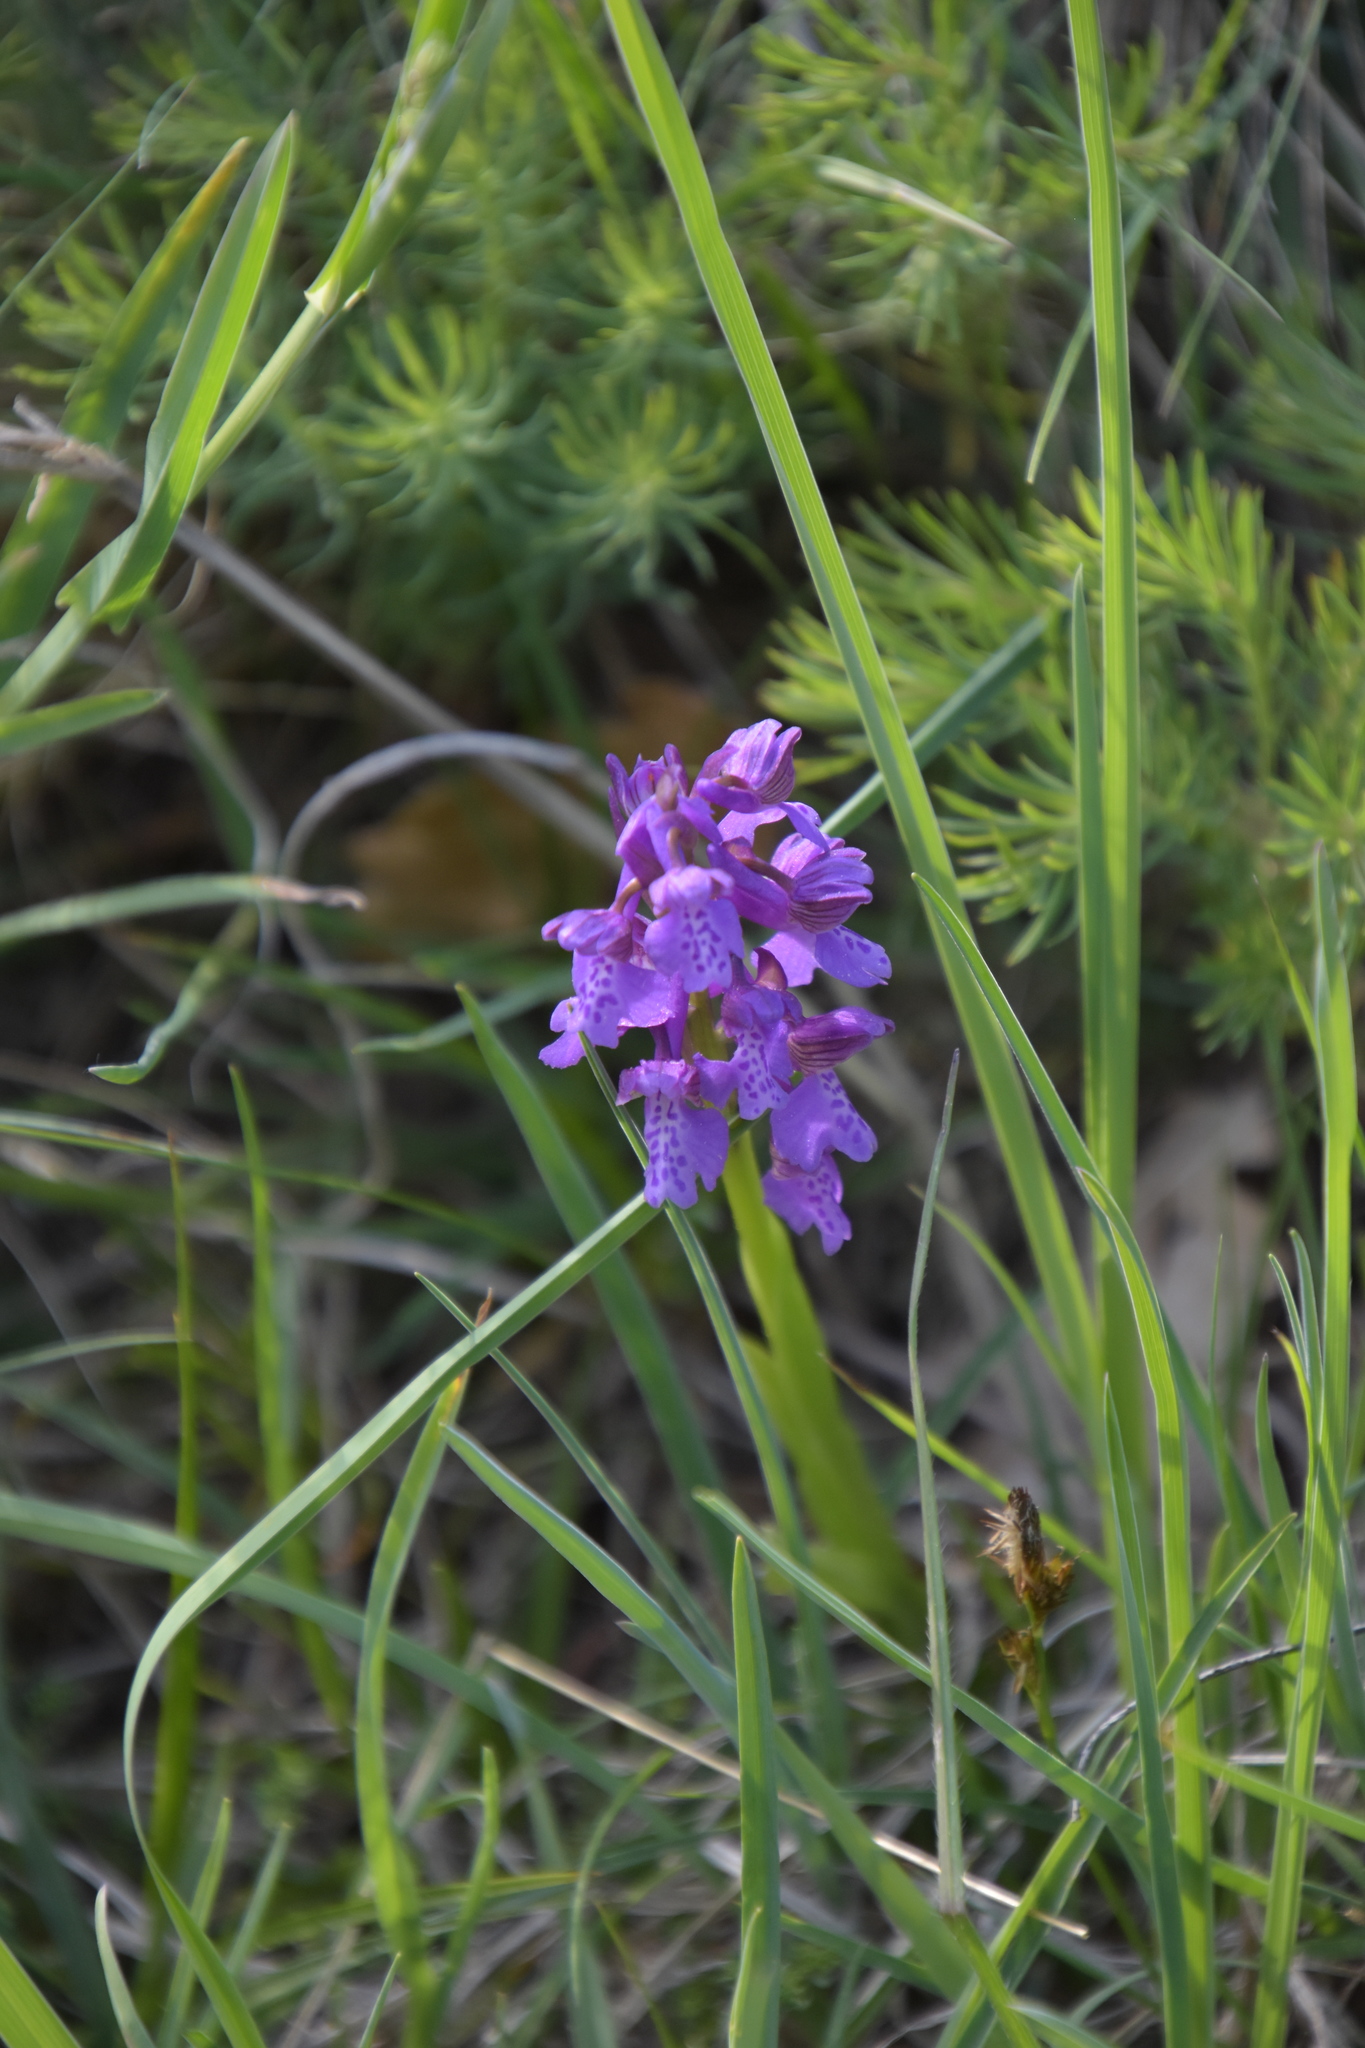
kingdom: Plantae
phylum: Tracheophyta
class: Liliopsida
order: Asparagales
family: Orchidaceae
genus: Anacamptis
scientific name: Anacamptis morio
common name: Green-winged orchid
